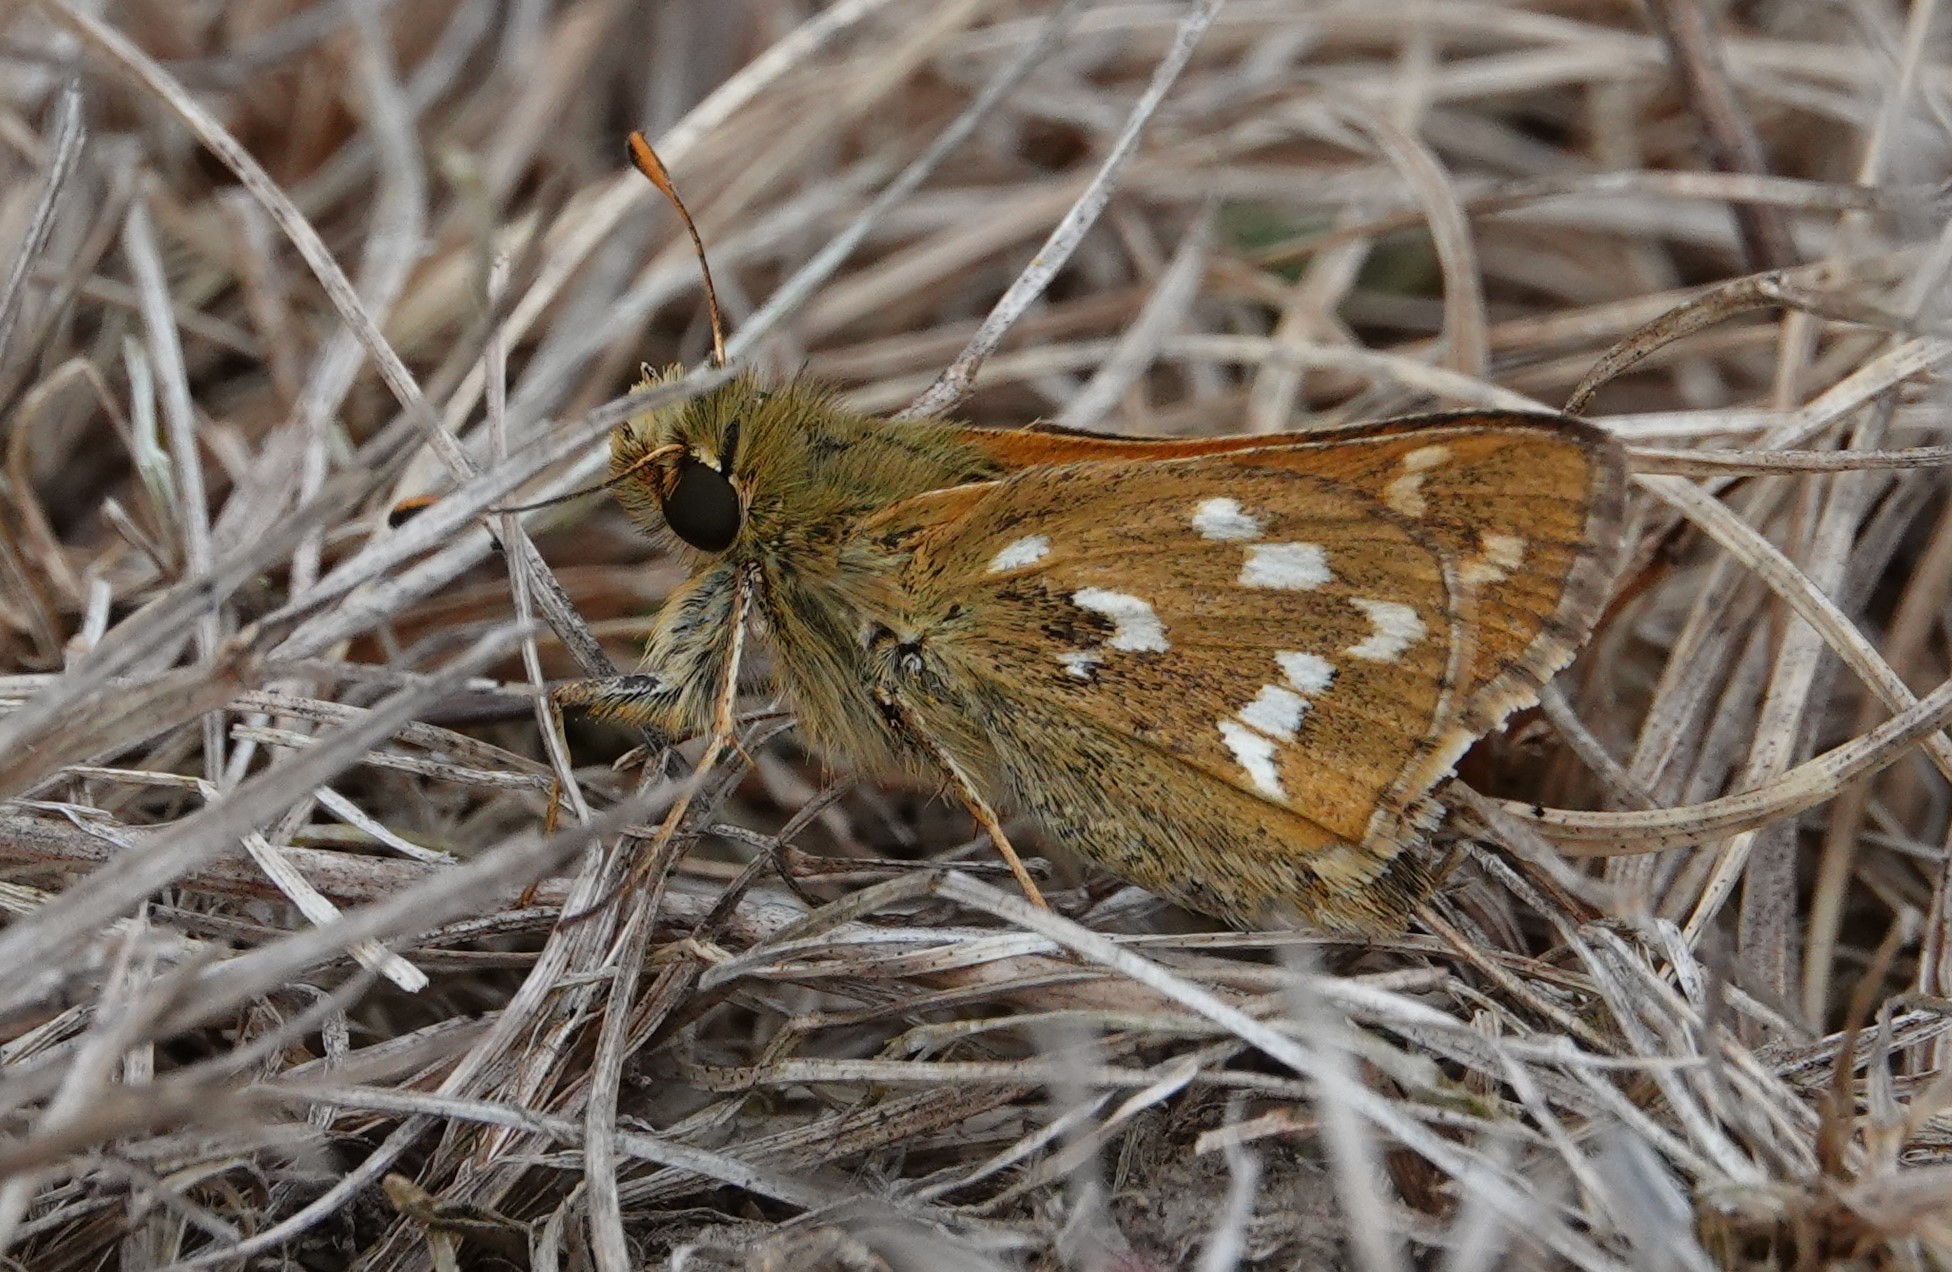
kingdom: Animalia
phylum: Arthropoda
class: Insecta
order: Lepidoptera
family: Hesperiidae
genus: Hesperia
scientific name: Hesperia comma
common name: Common branded skipper
